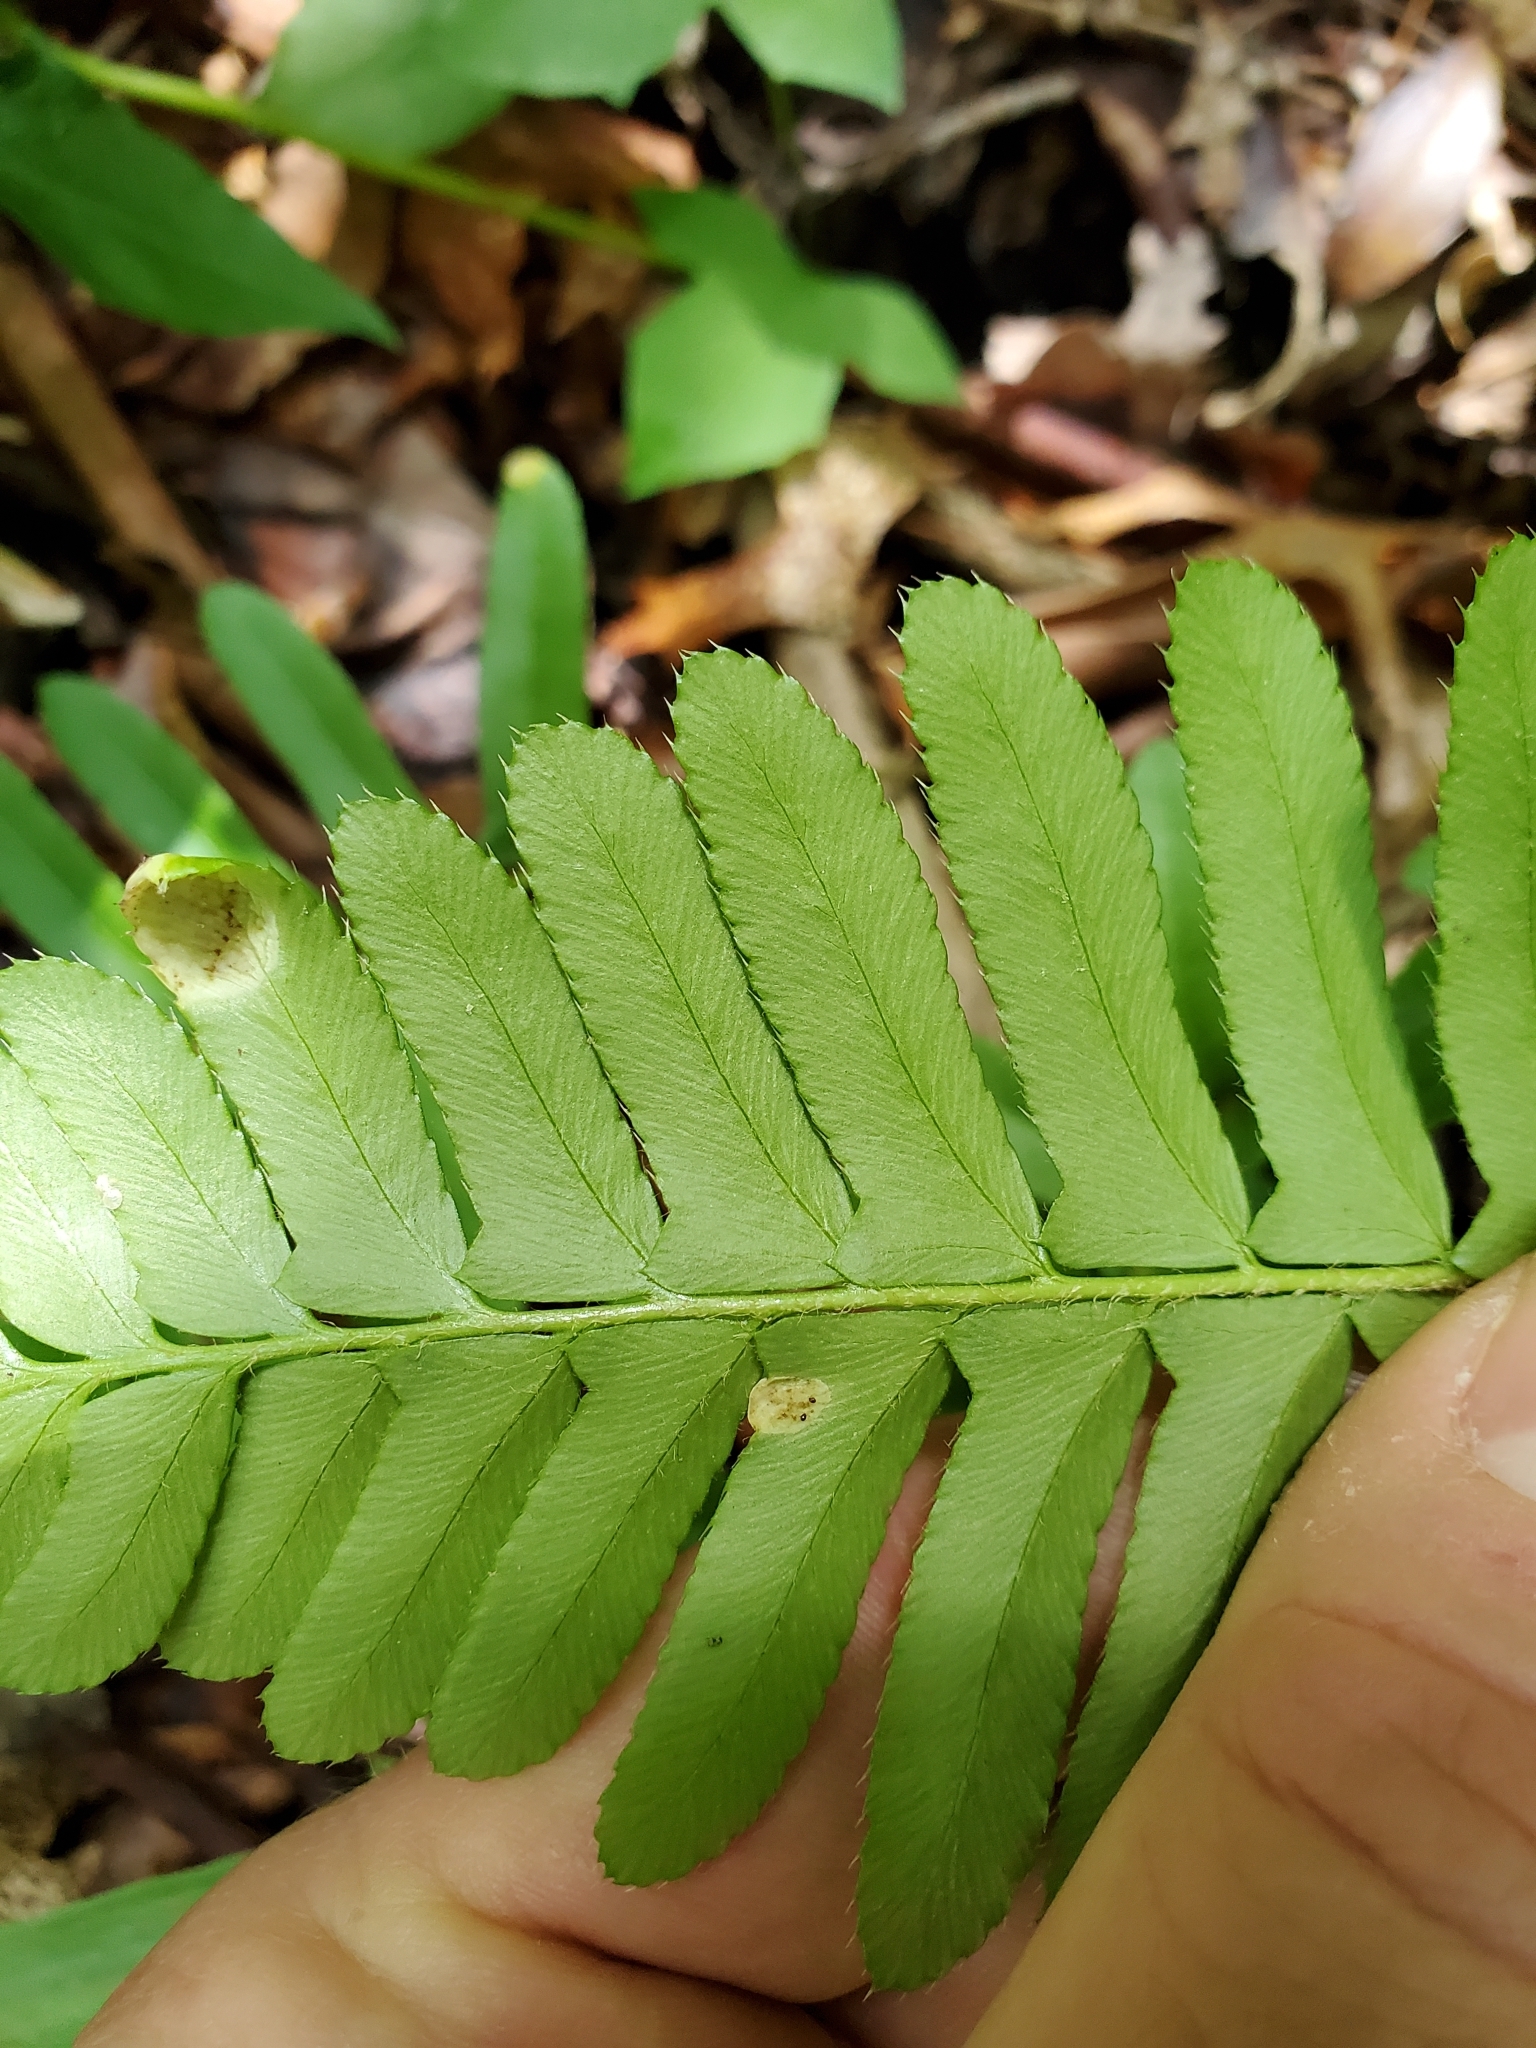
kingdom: Plantae
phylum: Tracheophyta
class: Polypodiopsida
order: Polypodiales
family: Dryopteridaceae
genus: Polystichum
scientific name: Polystichum acrostichoides
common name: Christmas fern
